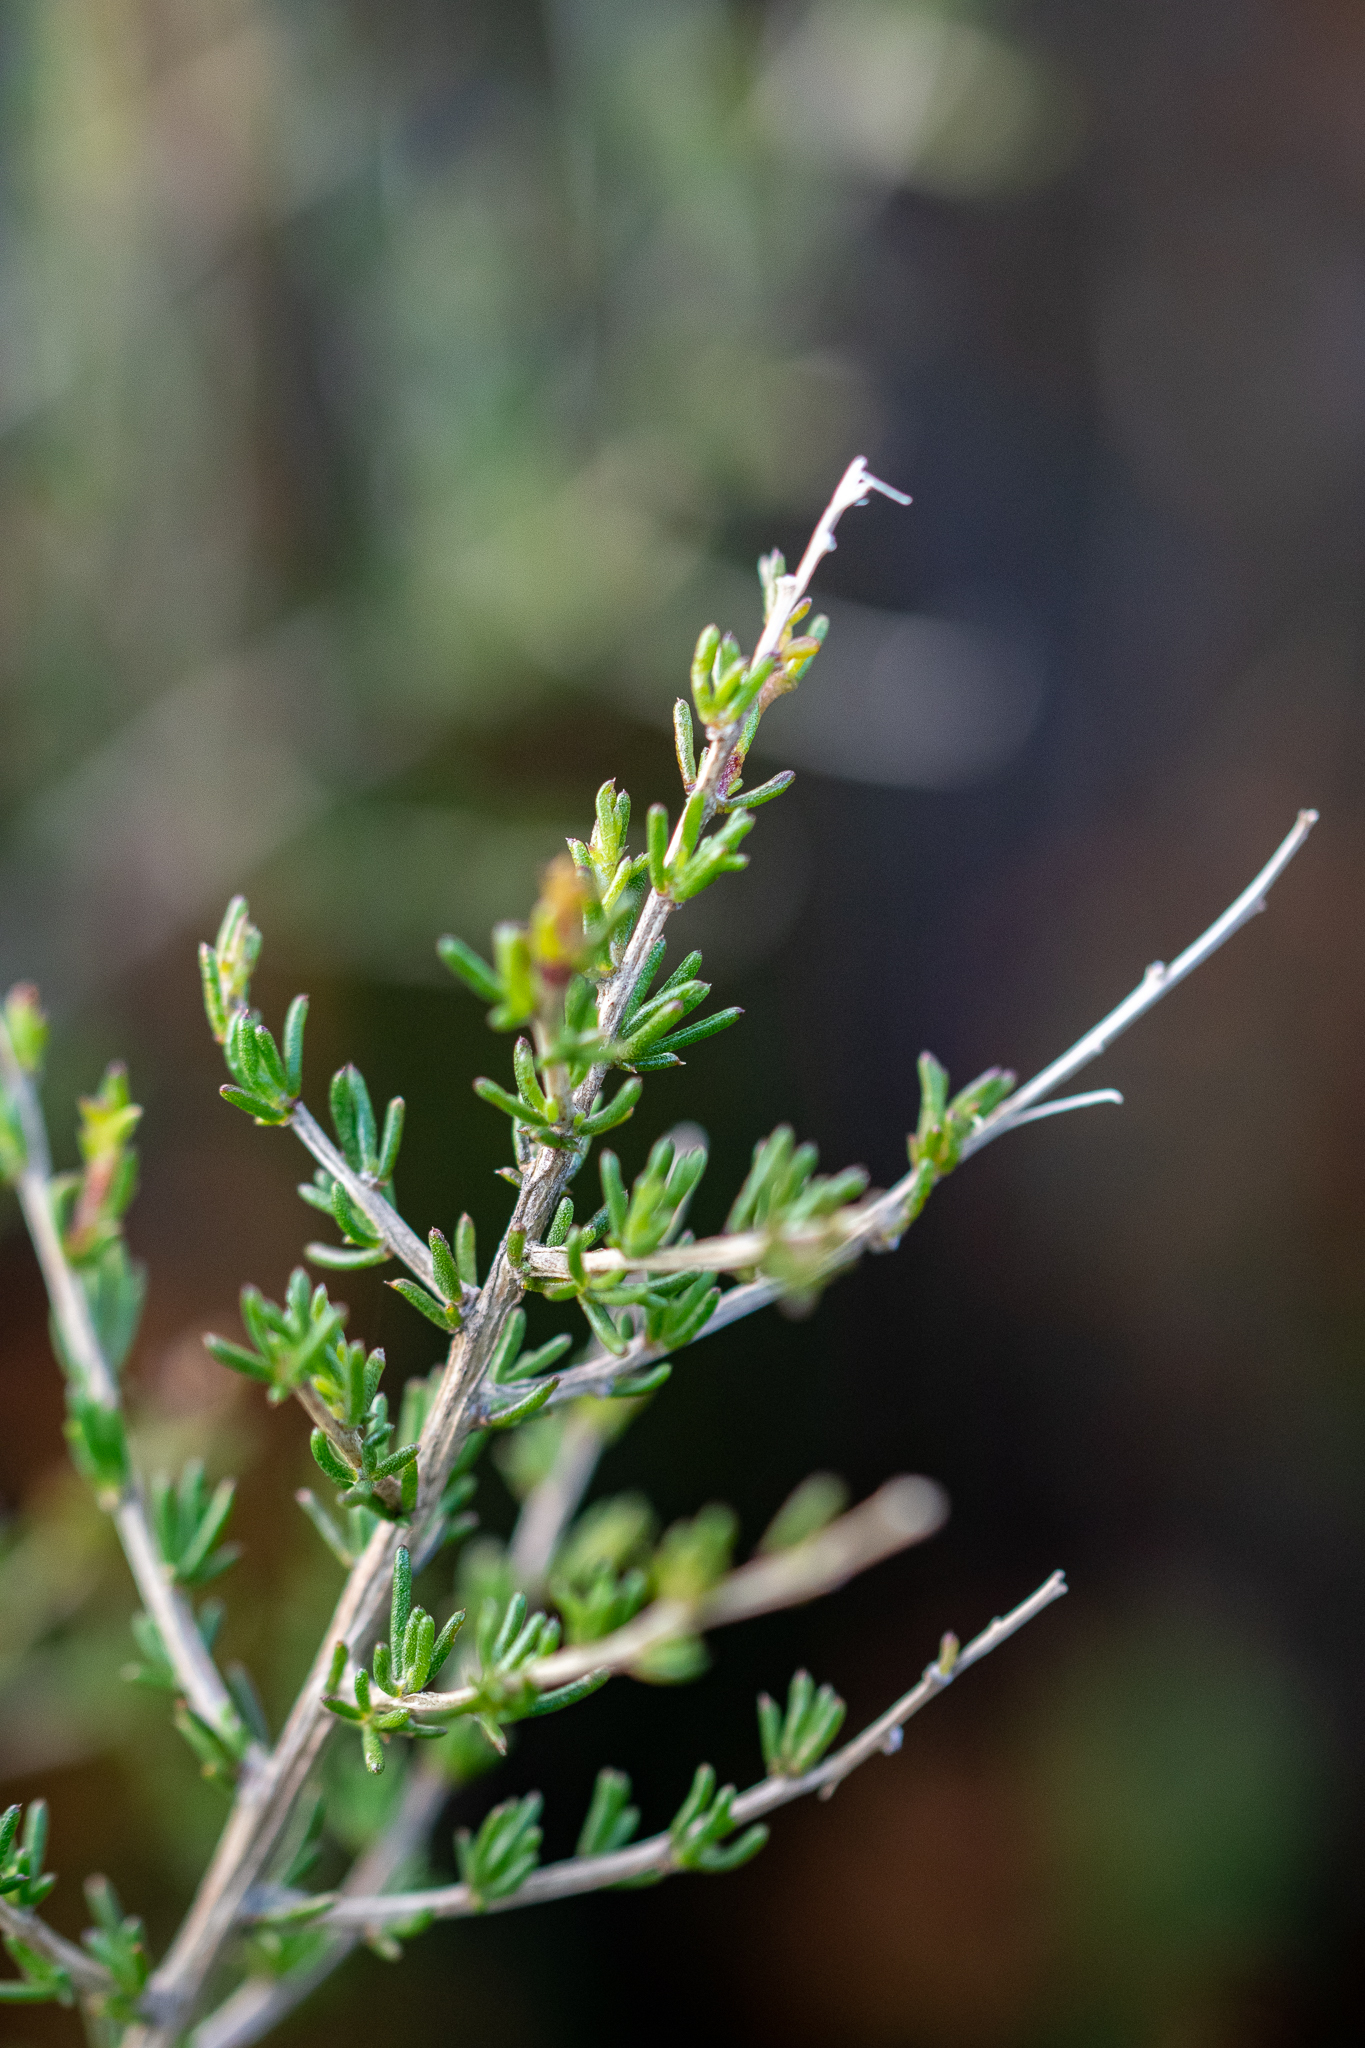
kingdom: Plantae
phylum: Tracheophyta
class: Magnoliopsida
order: Fabales
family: Fabaceae
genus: Aspalathus
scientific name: Aspalathus abietina
